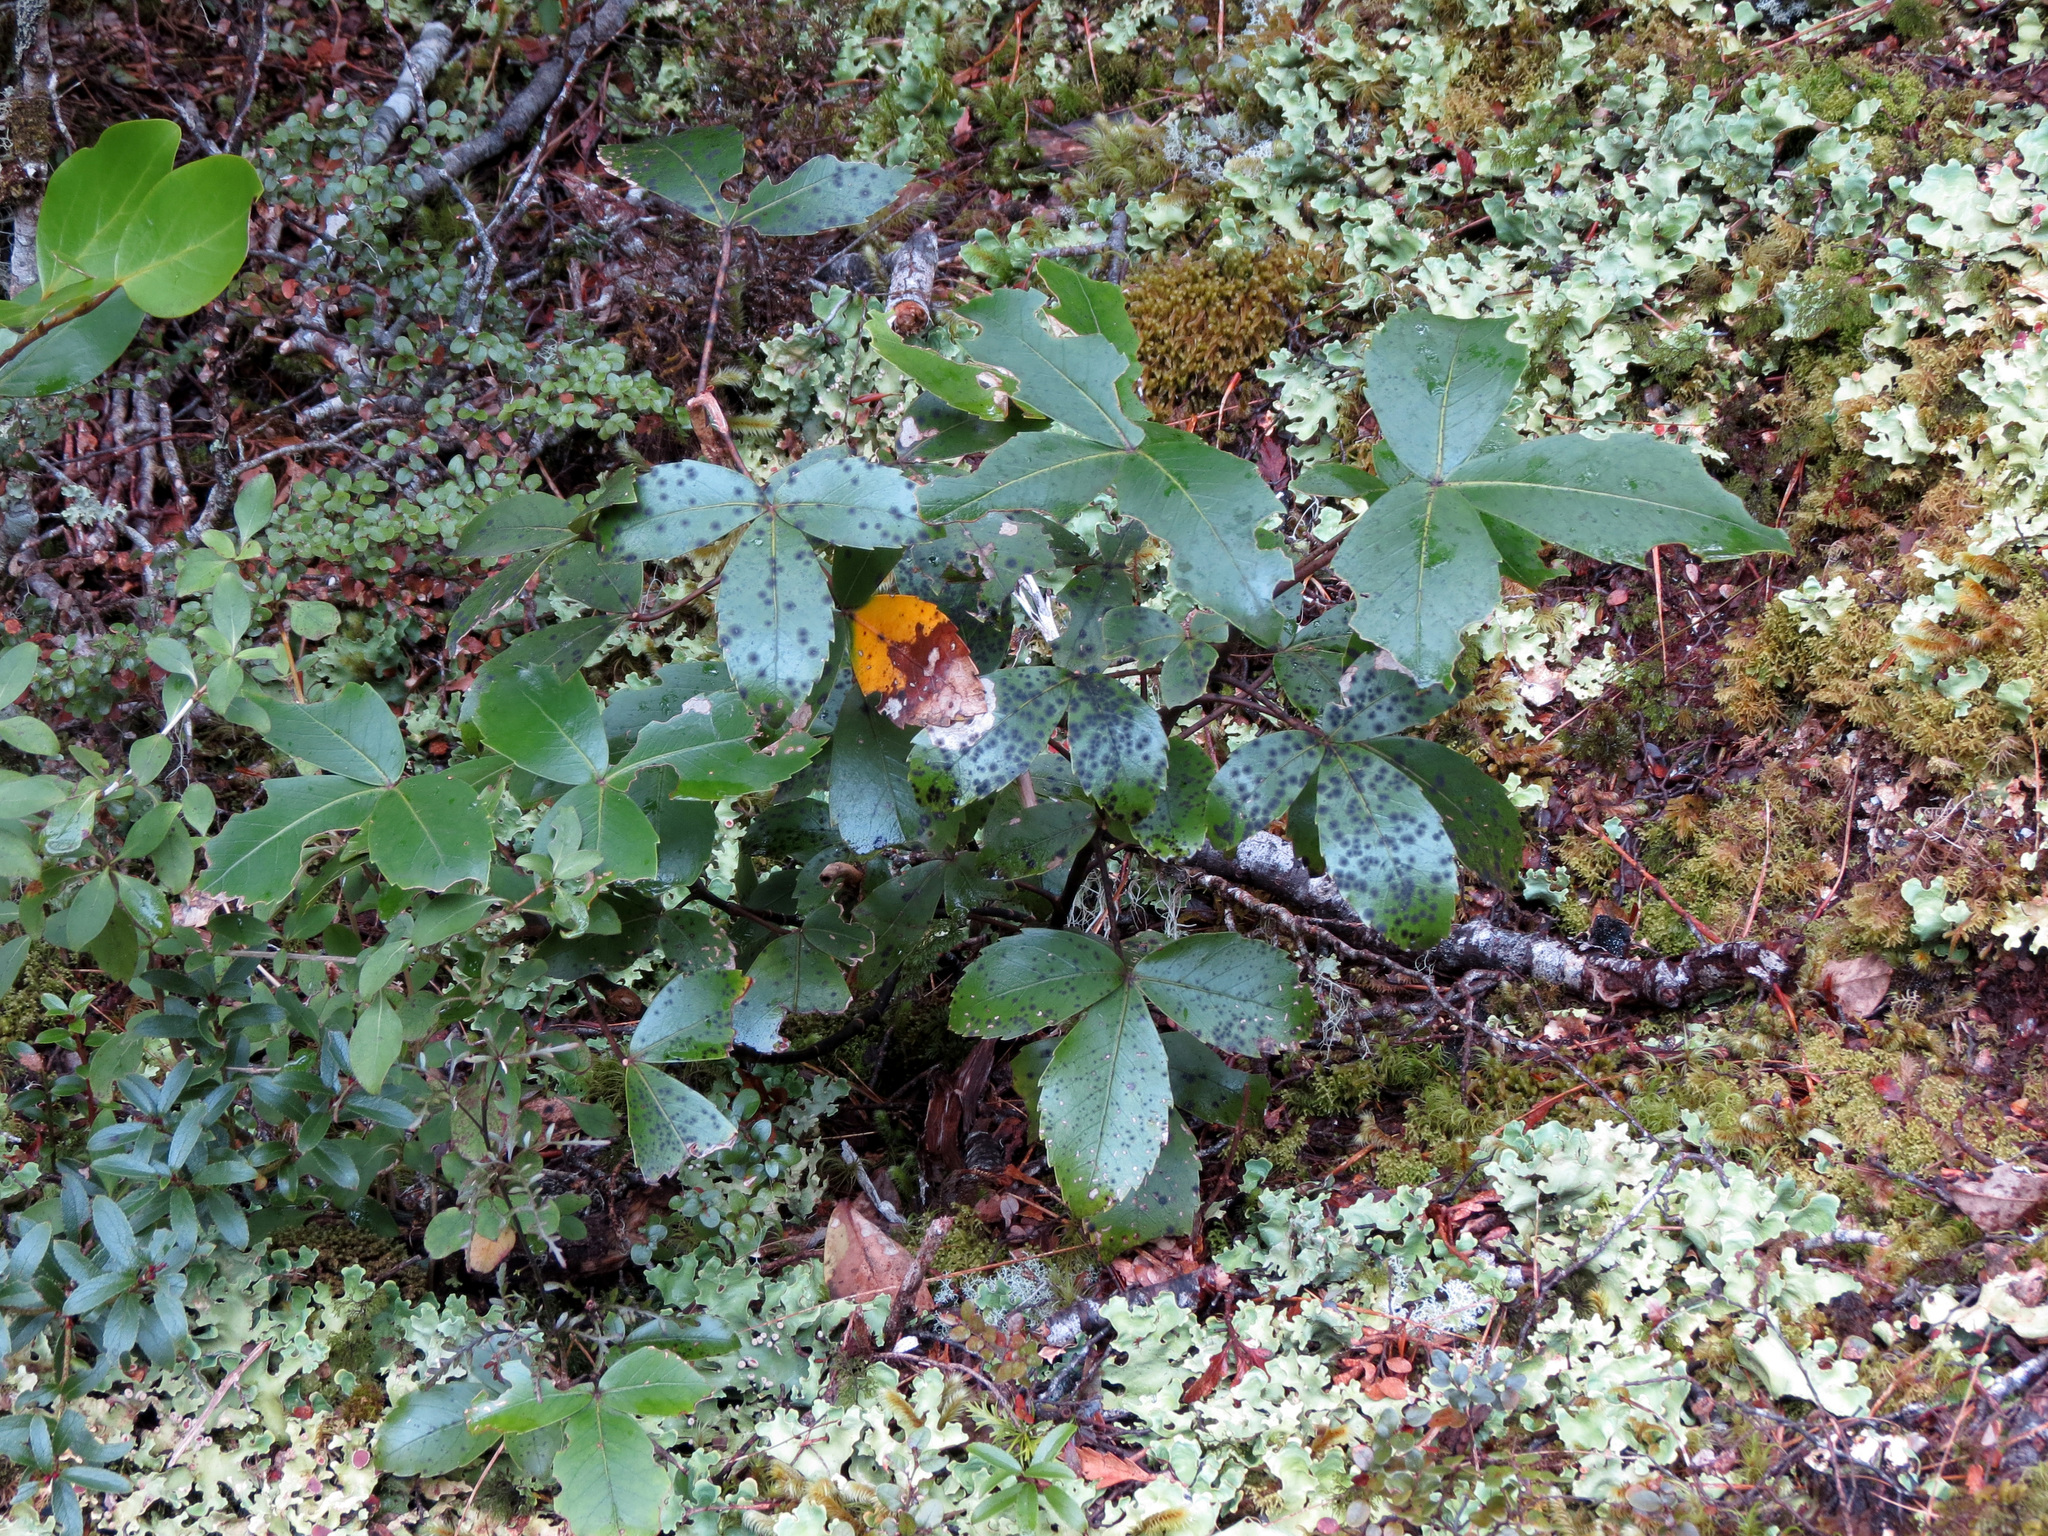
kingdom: Plantae
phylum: Tracheophyta
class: Magnoliopsida
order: Apiales
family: Araliaceae
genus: Neopanax
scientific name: Neopanax colensoi
